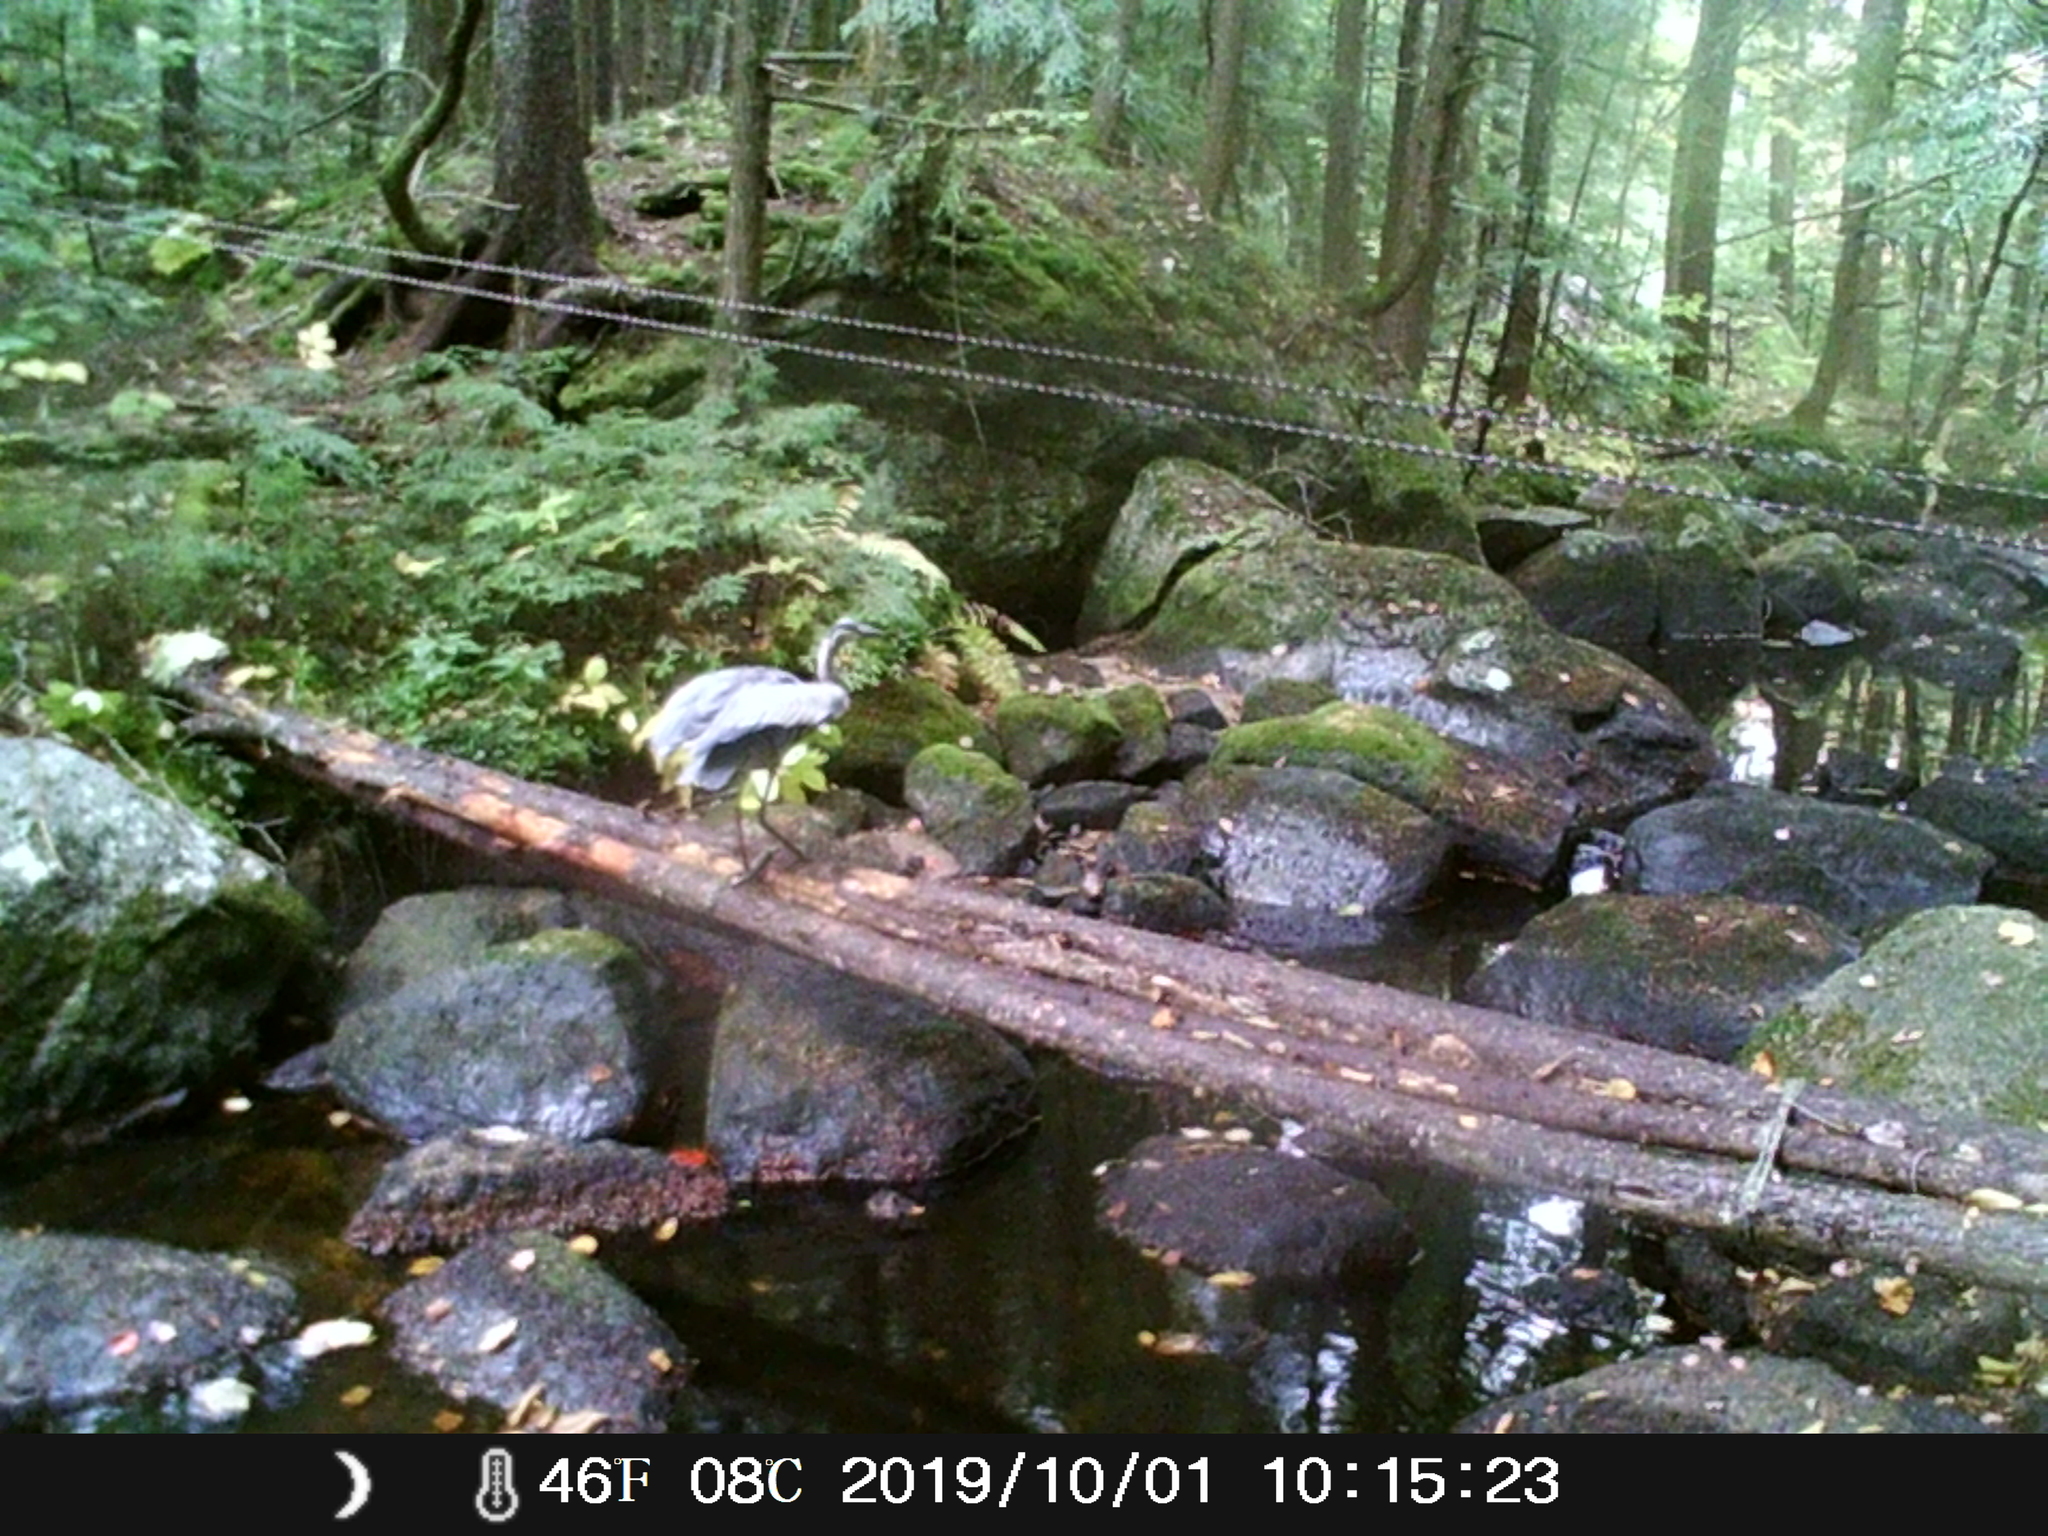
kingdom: Animalia
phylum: Chordata
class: Aves
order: Pelecaniformes
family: Ardeidae
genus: Ardea
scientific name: Ardea herodias
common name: Great blue heron
